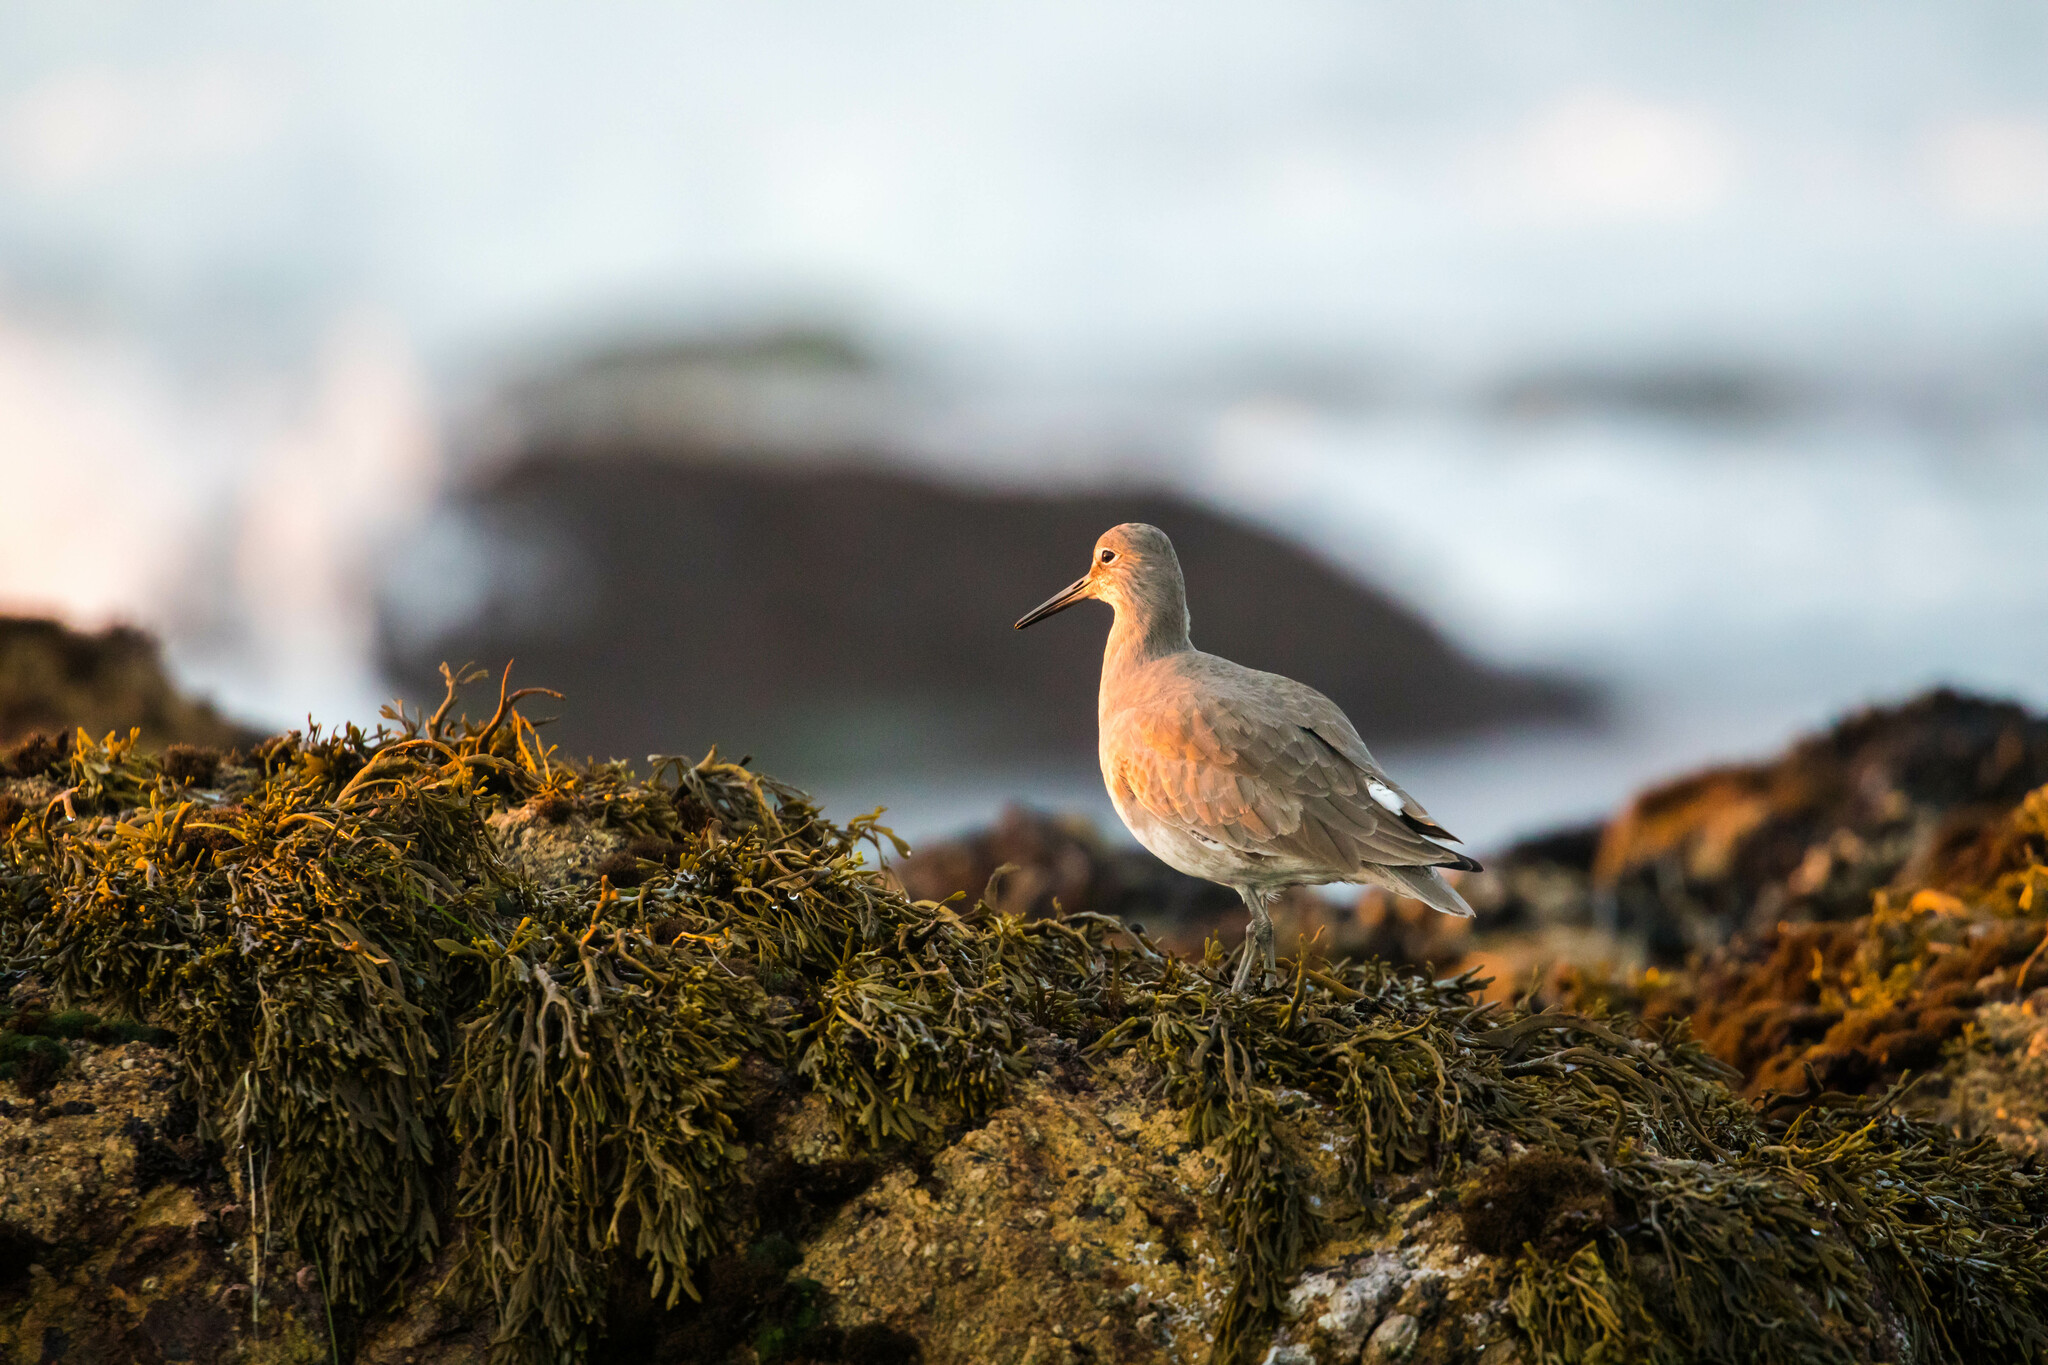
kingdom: Animalia
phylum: Chordata
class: Aves
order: Charadriiformes
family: Scolopacidae
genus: Tringa
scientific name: Tringa semipalmata
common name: Willet
